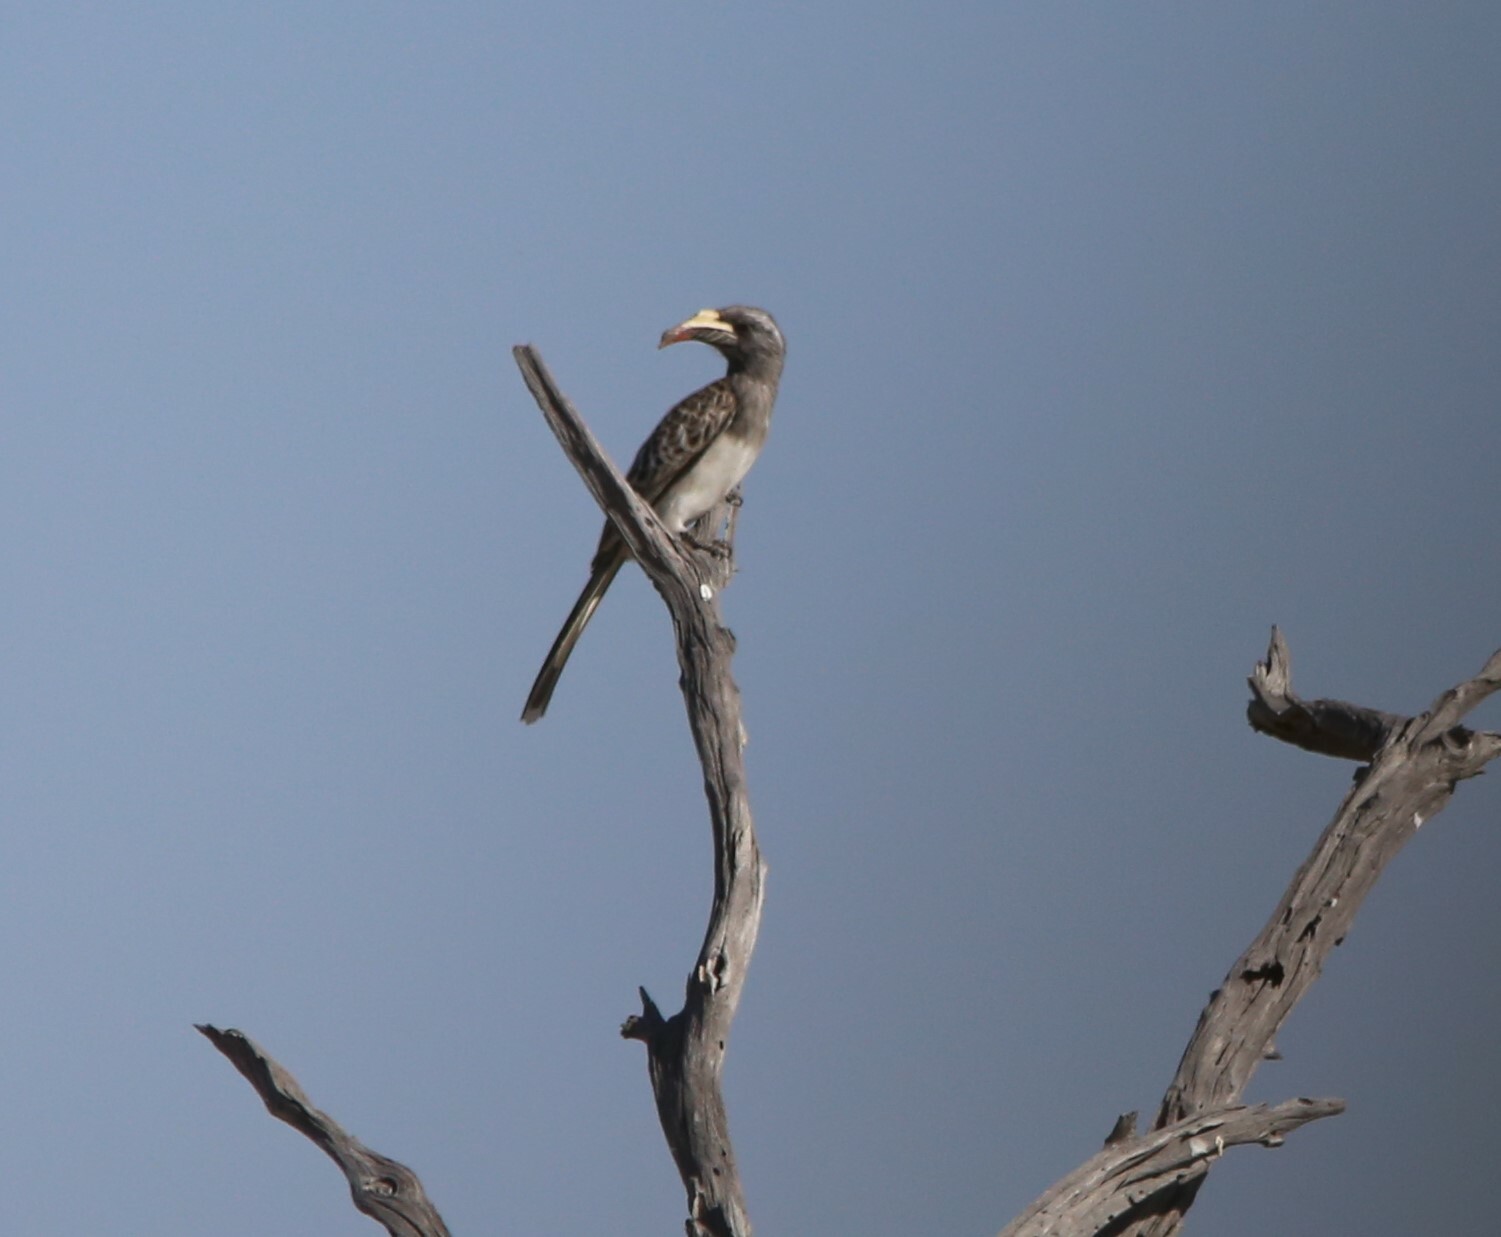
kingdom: Animalia
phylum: Chordata
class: Aves
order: Bucerotiformes
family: Bucerotidae
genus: Lophoceros
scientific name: Lophoceros nasutus
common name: African grey hornbill
